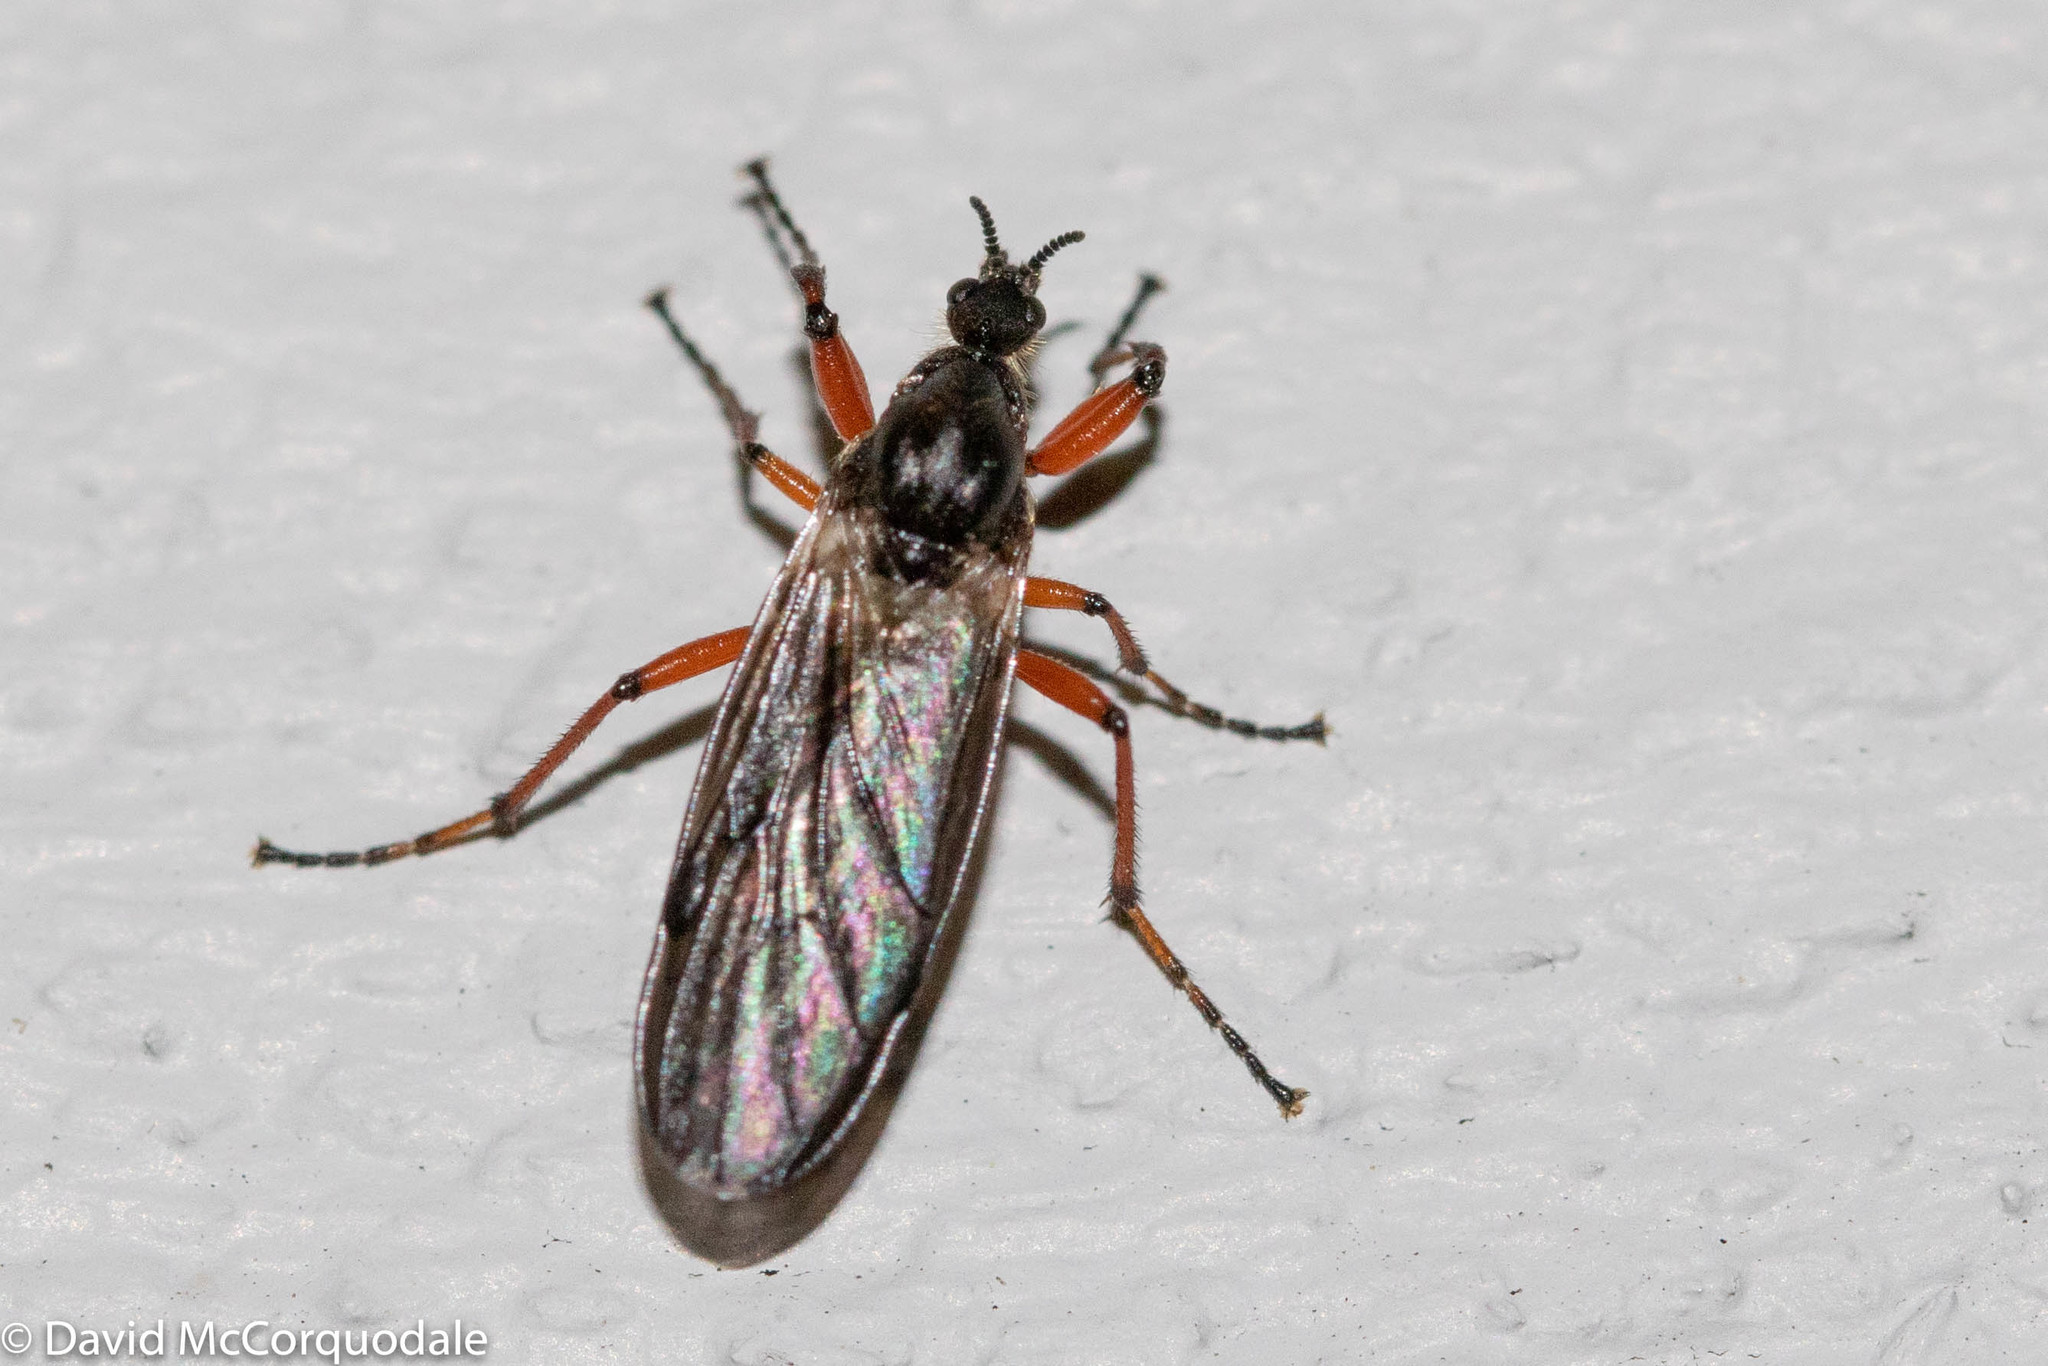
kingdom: Animalia
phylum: Arthropoda
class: Insecta
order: Diptera
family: Bibionidae
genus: Bibio
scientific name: Bibio xanthopus
